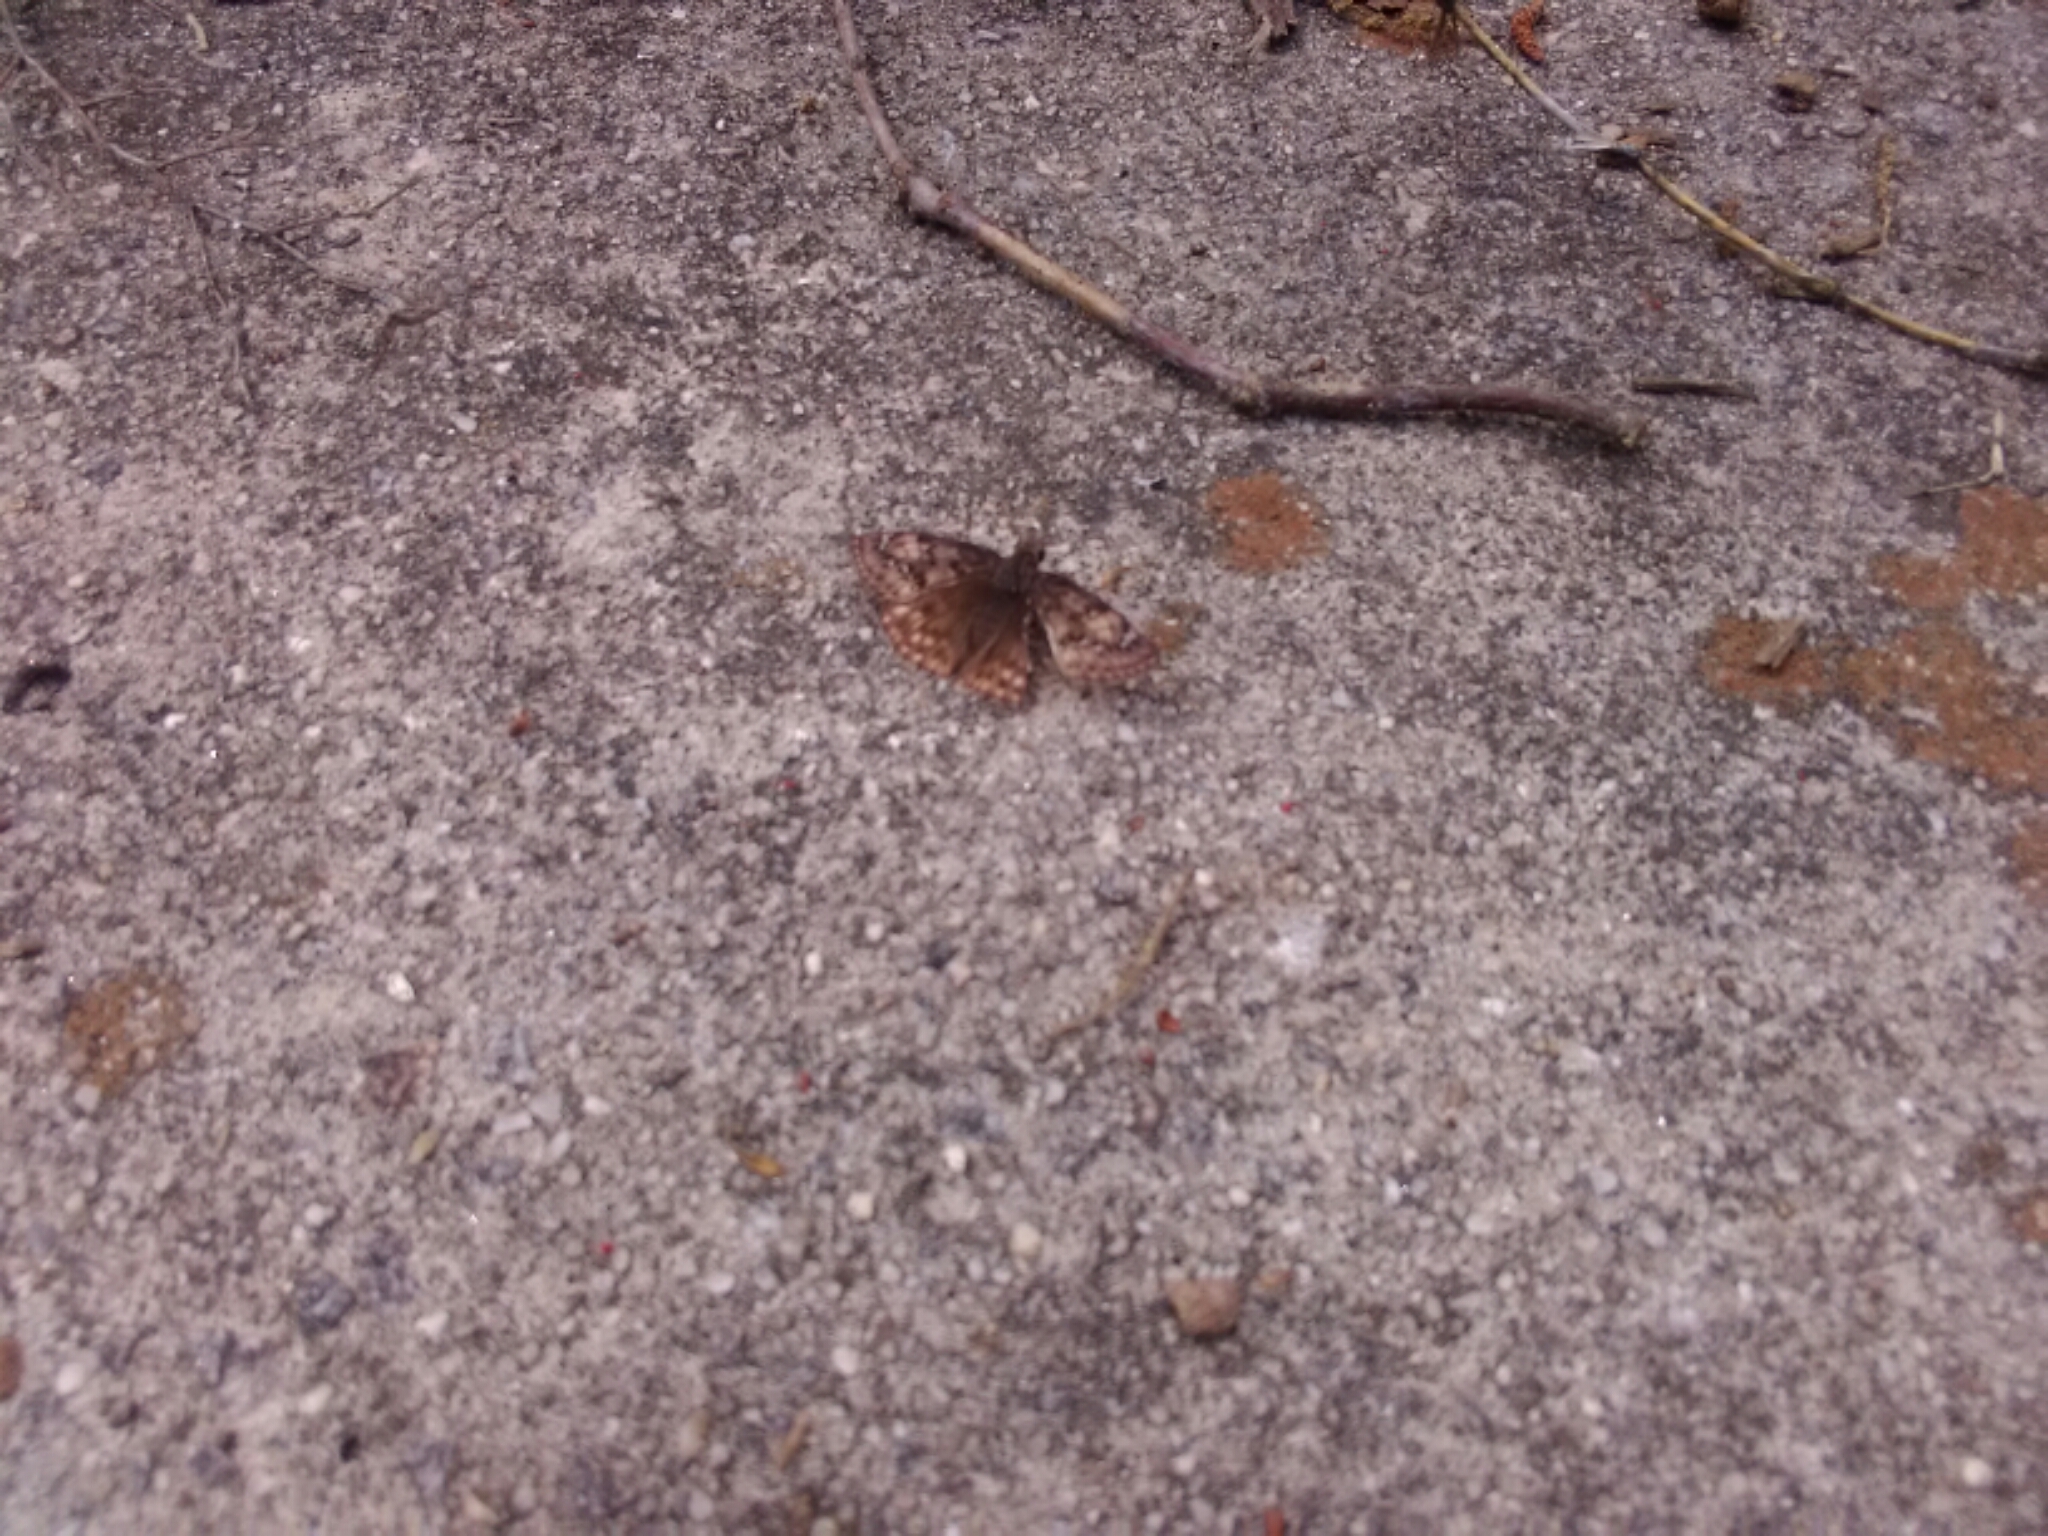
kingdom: Animalia
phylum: Arthropoda
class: Insecta
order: Lepidoptera
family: Hesperiidae
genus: Erynnis
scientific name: Erynnis juvenalis
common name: Juvenal's duskywing
